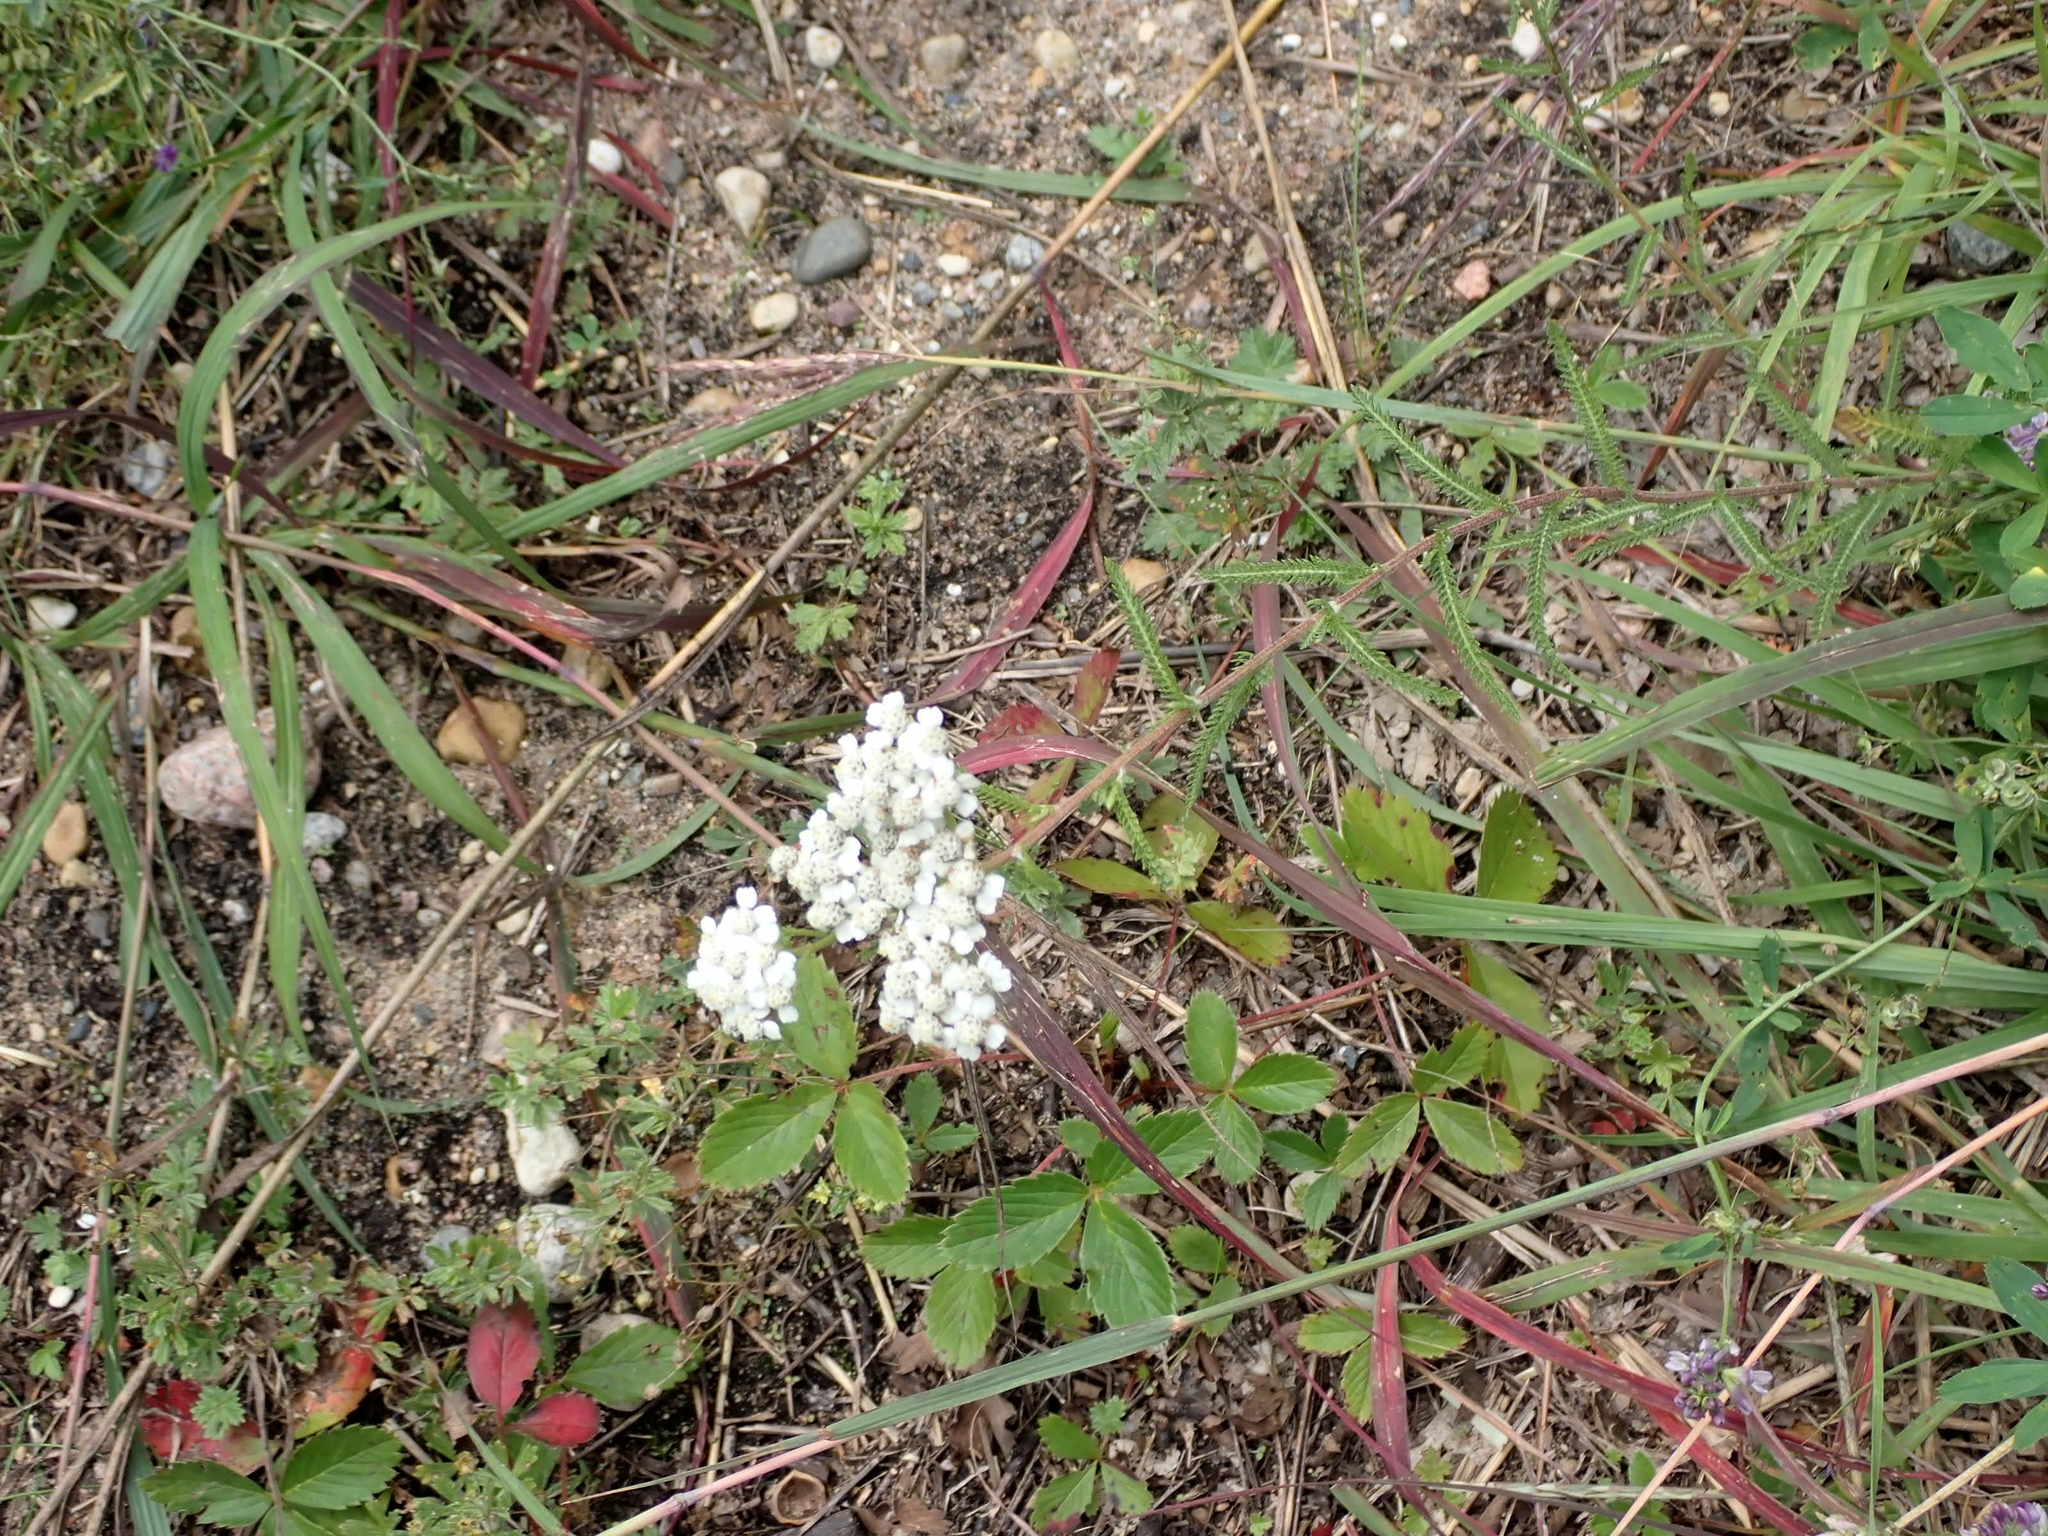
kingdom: Plantae
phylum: Tracheophyta
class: Magnoliopsida
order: Asterales
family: Asteraceae
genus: Achillea
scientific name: Achillea millefolium
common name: Yarrow
